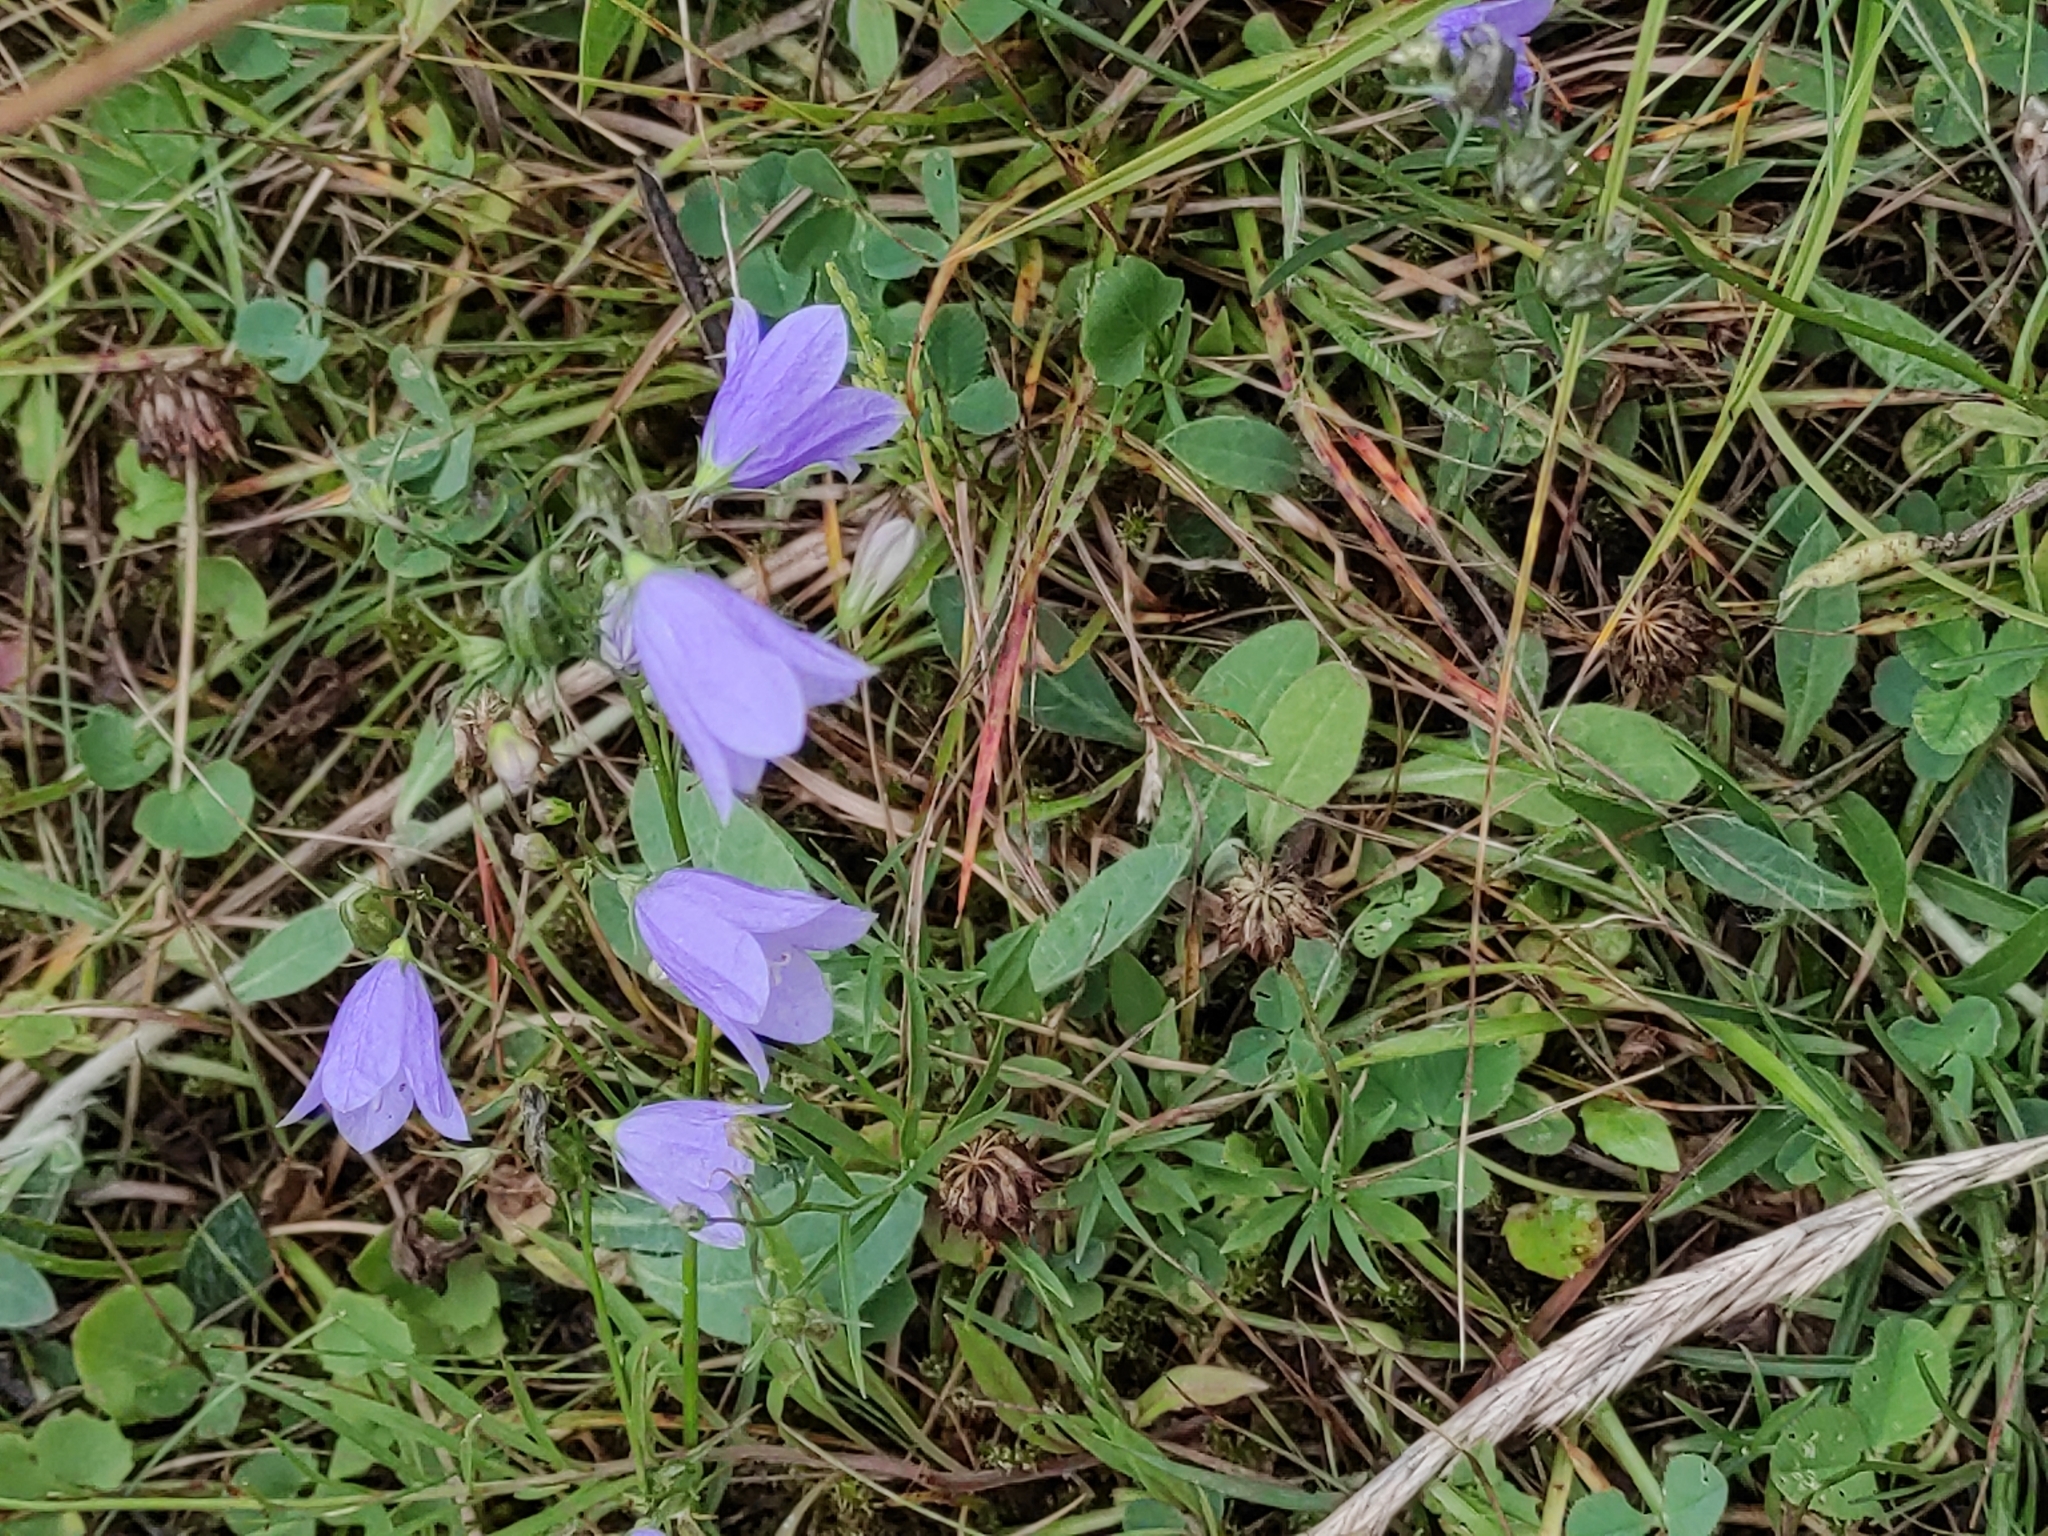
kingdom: Plantae
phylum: Tracheophyta
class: Magnoliopsida
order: Asterales
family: Campanulaceae
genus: Campanula
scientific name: Campanula rotundifolia
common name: Harebell
